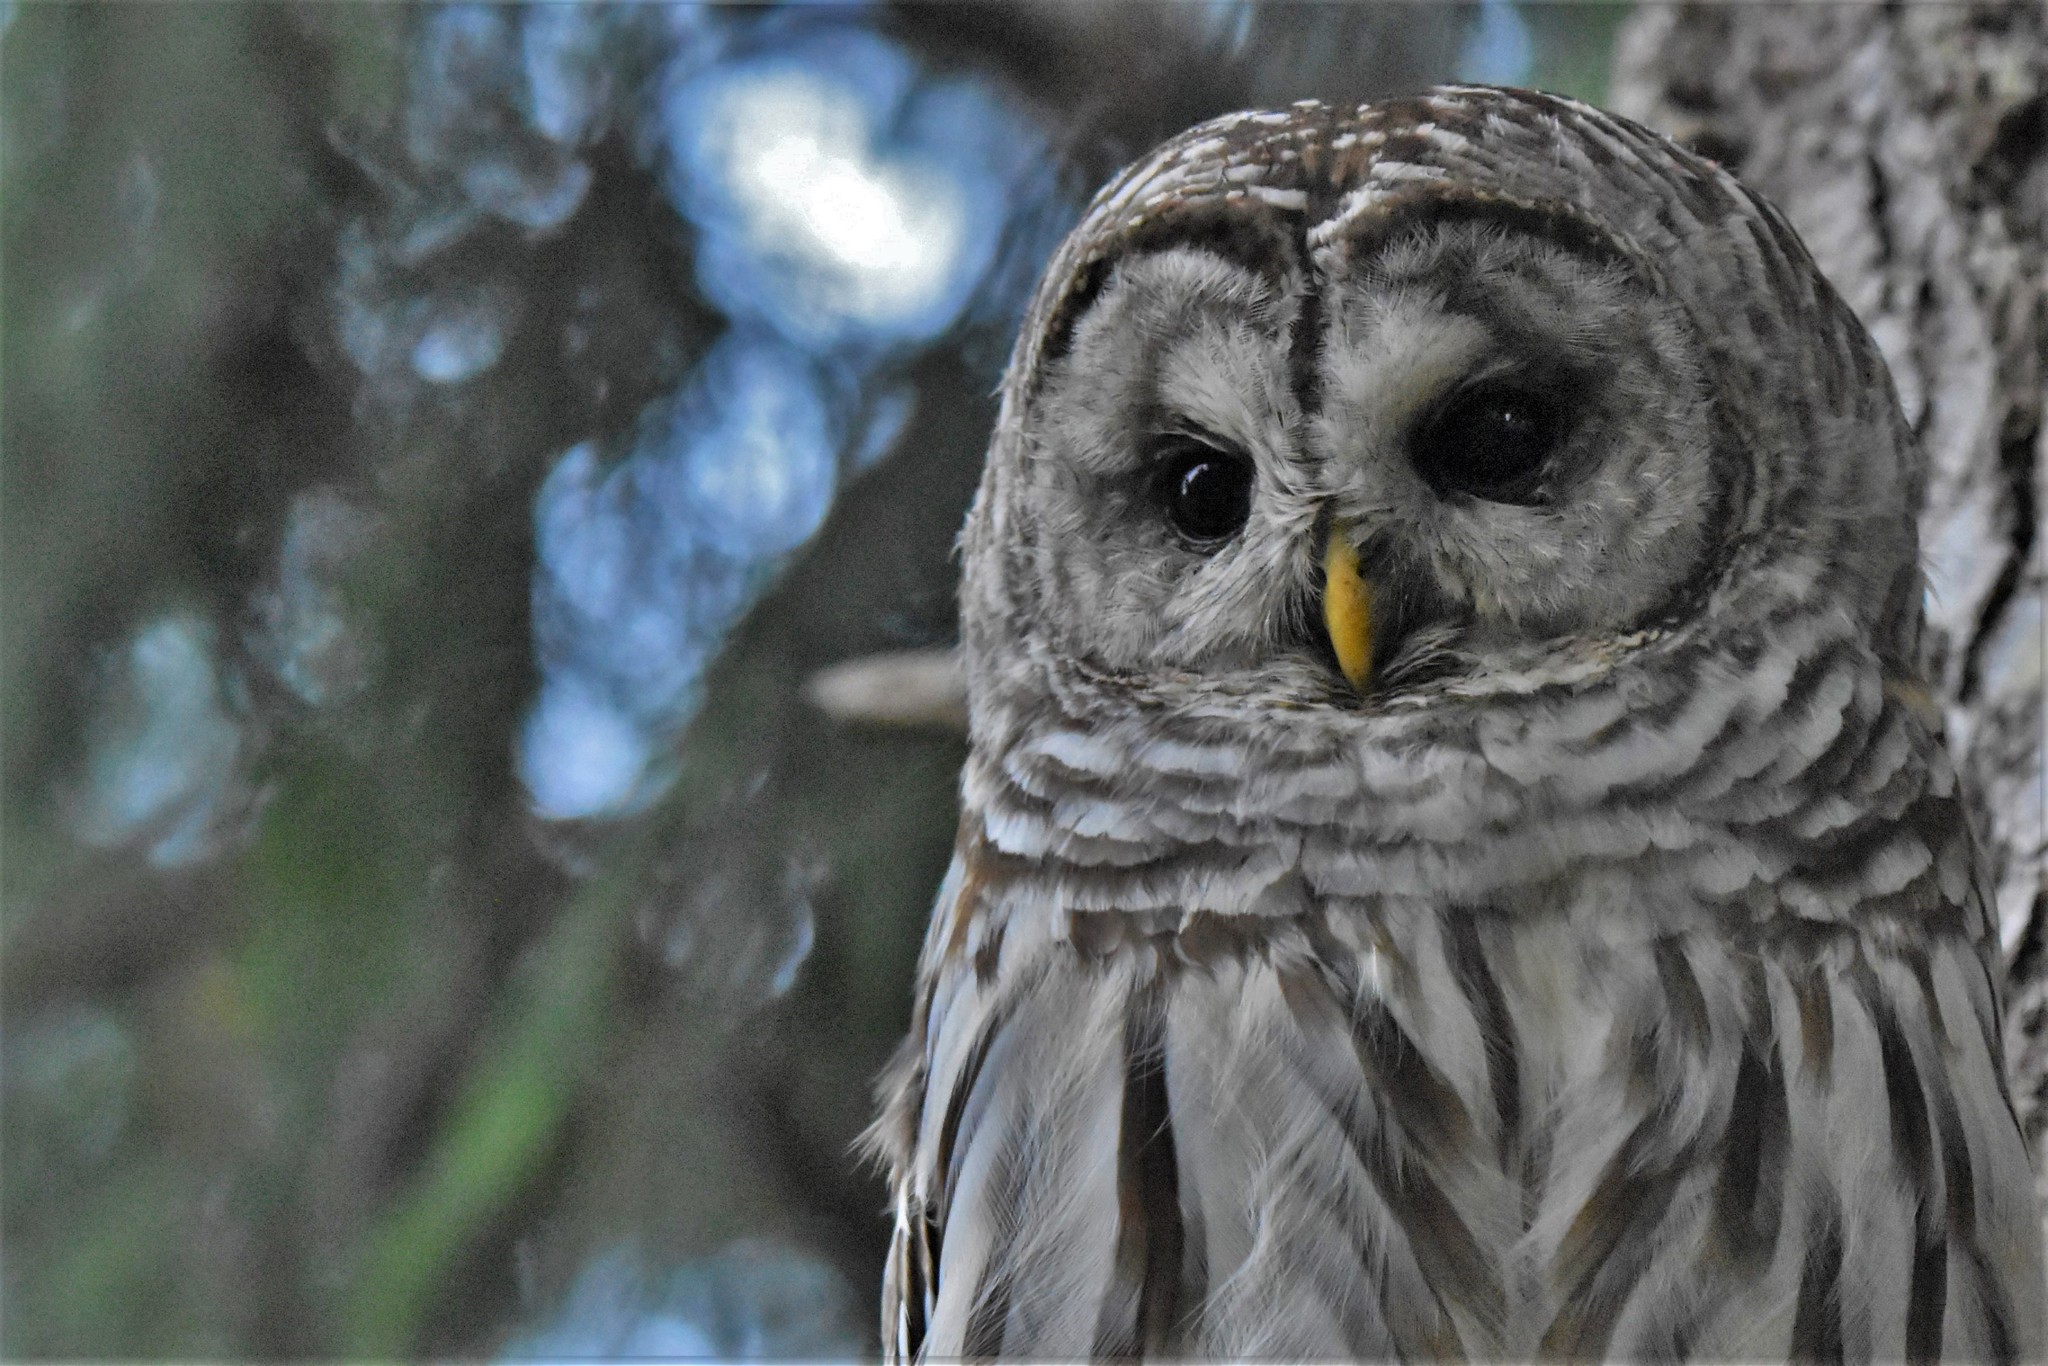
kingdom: Animalia
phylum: Chordata
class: Aves
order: Strigiformes
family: Strigidae
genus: Strix
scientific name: Strix varia
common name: Barred owl
